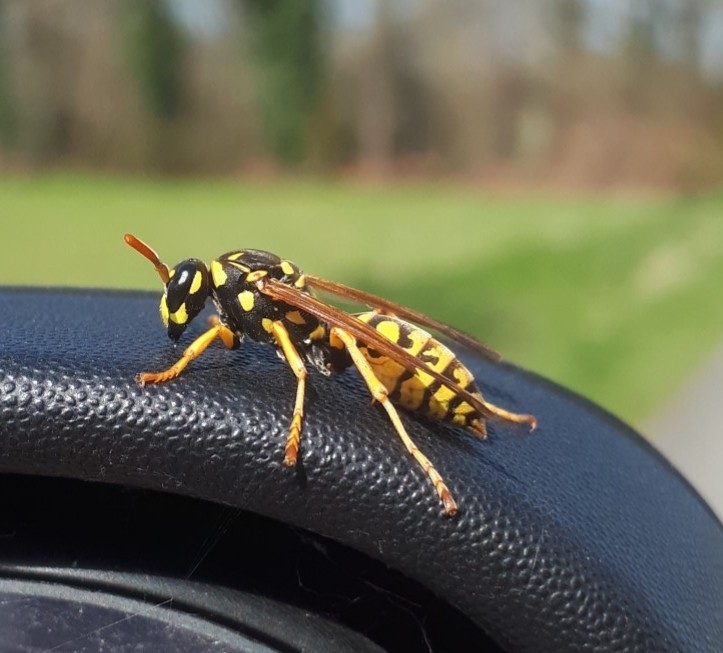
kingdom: Animalia
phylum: Arthropoda
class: Insecta
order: Hymenoptera
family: Eumenidae
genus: Polistes
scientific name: Polistes dominula
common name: Paper wasp
